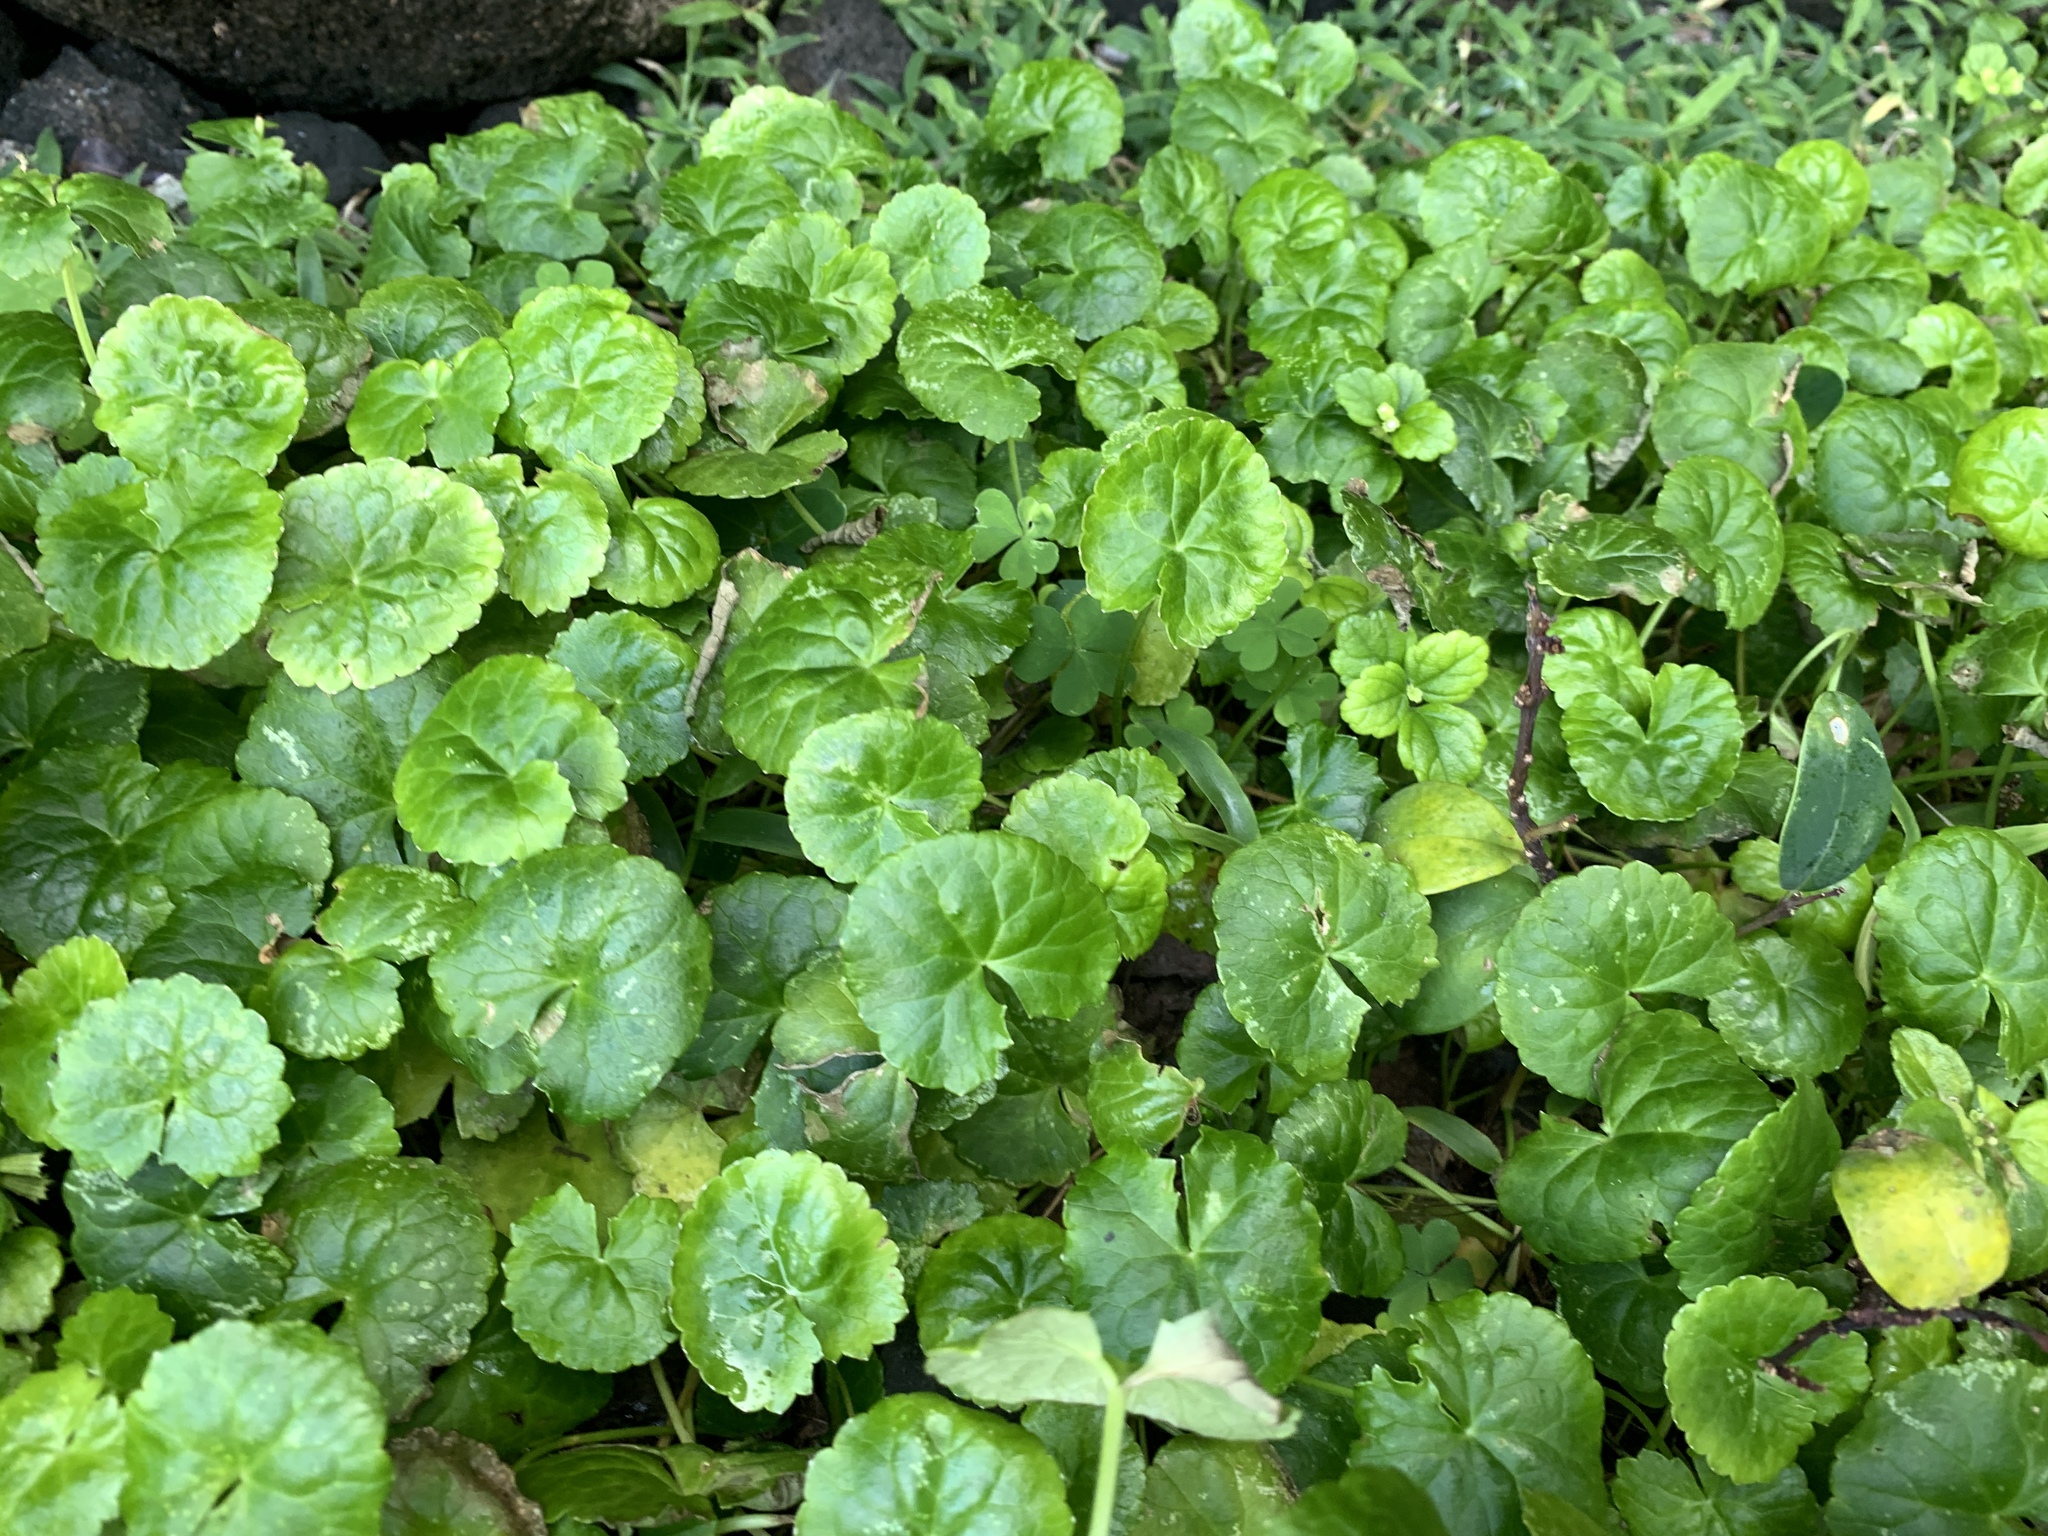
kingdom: Plantae
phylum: Tracheophyta
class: Magnoliopsida
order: Apiales
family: Apiaceae
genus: Centella
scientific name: Centella asiatica
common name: Spadeleaf
